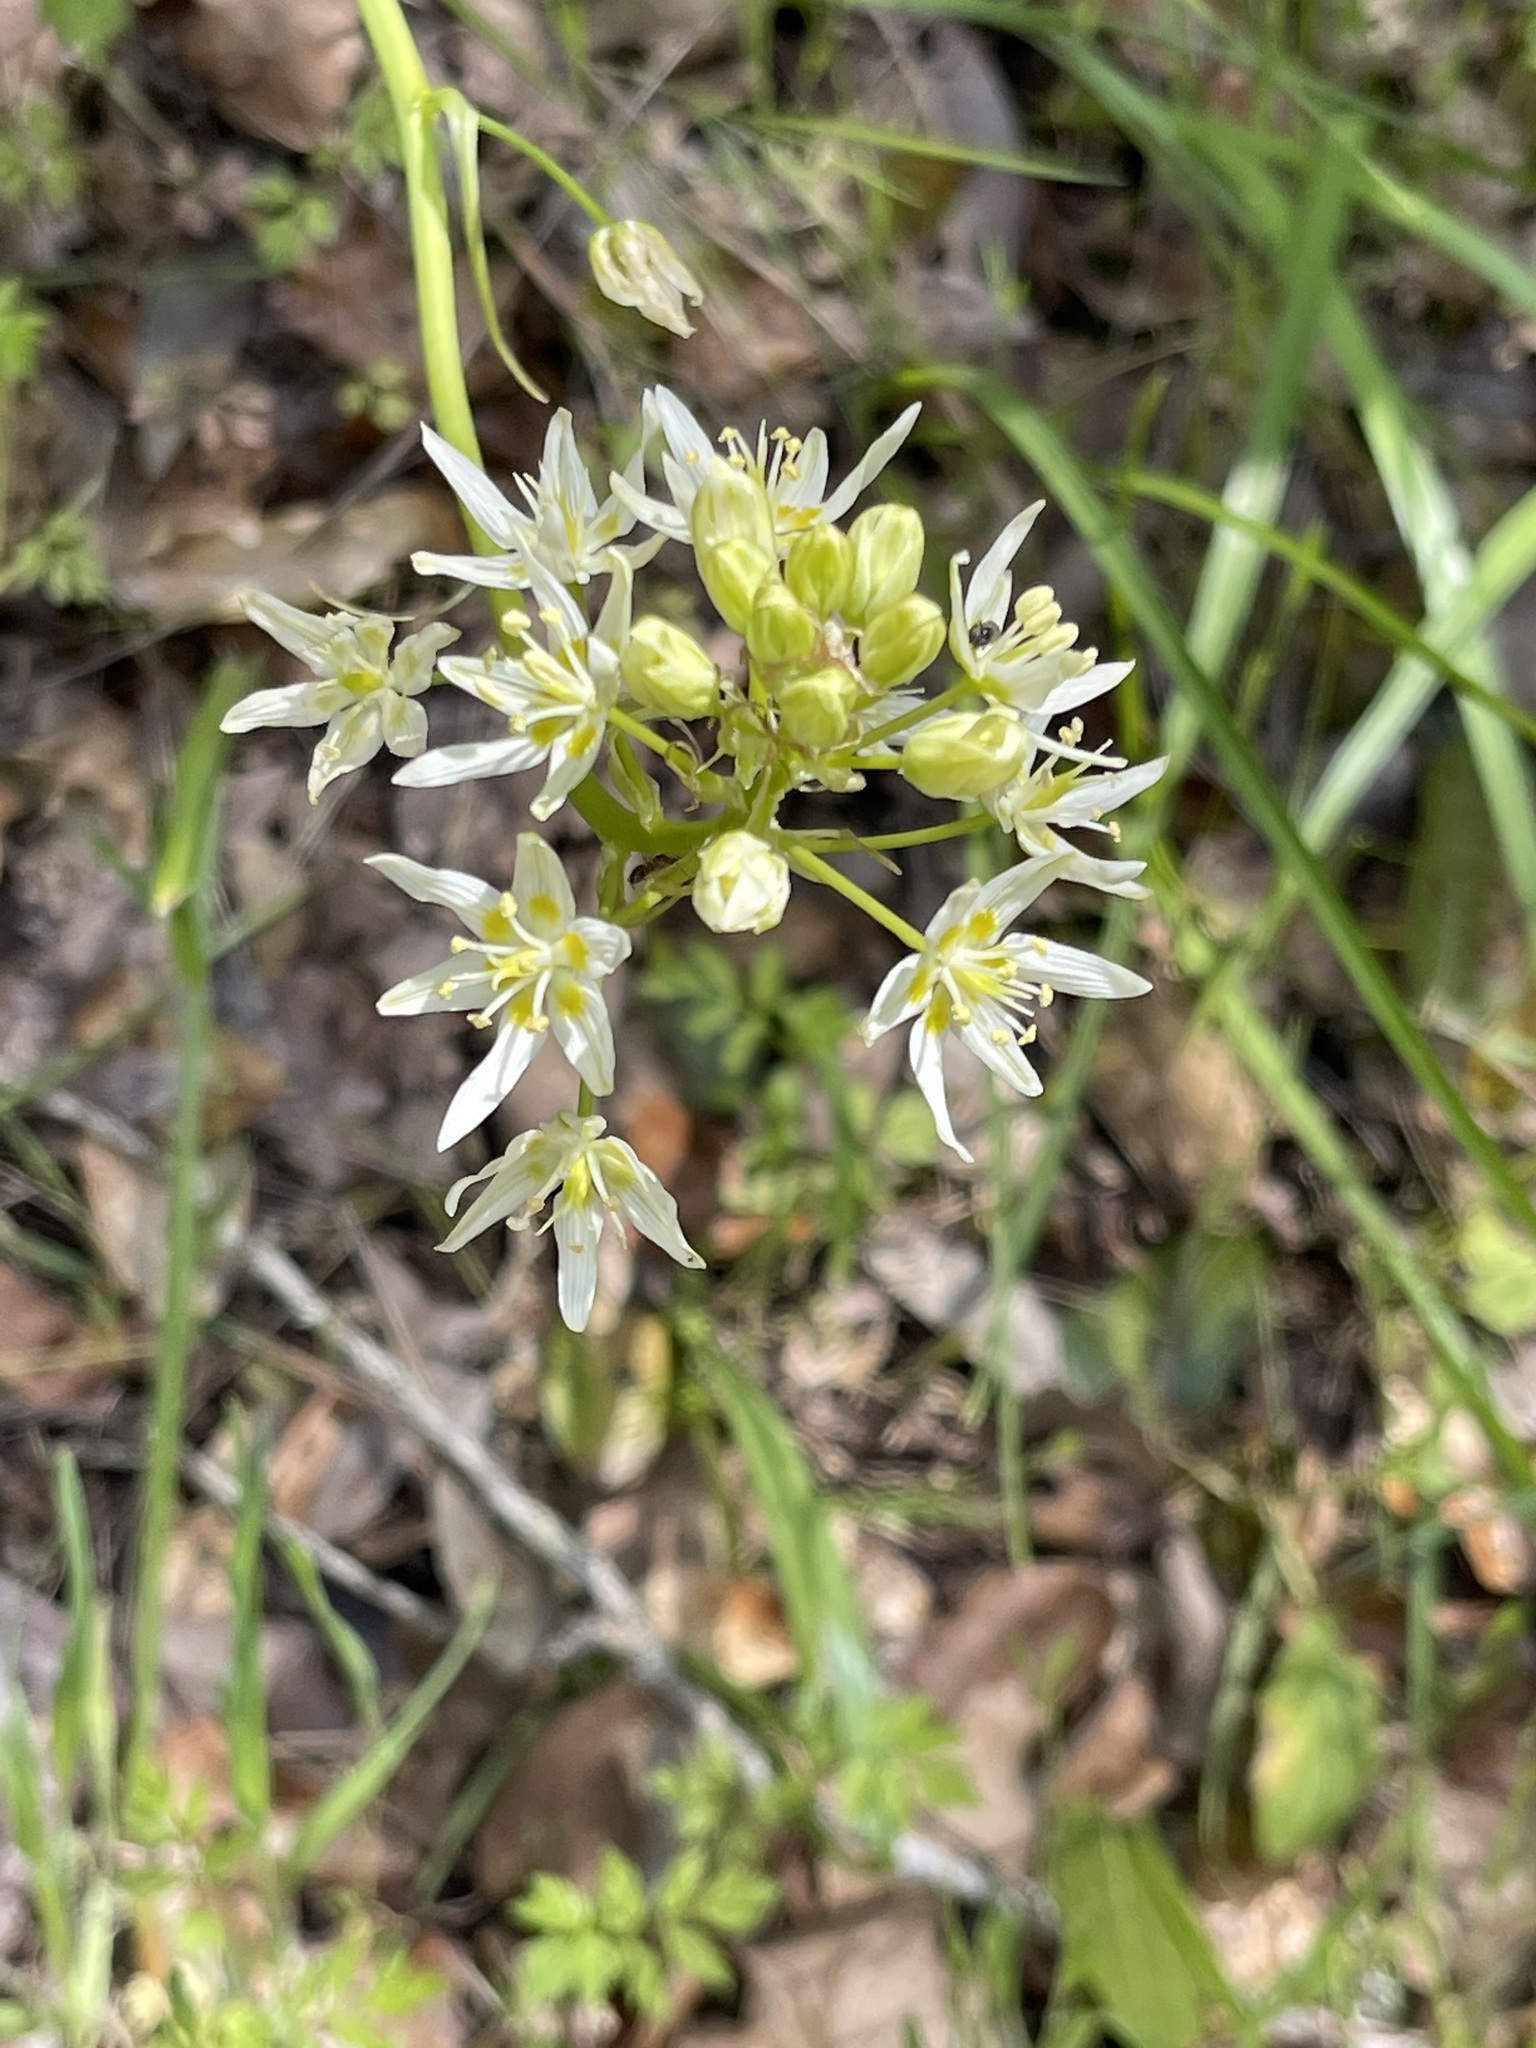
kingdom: Plantae
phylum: Tracheophyta
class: Liliopsida
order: Liliales
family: Melanthiaceae
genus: Toxicoscordion
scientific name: Toxicoscordion fremontii
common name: Fremont's death camas
